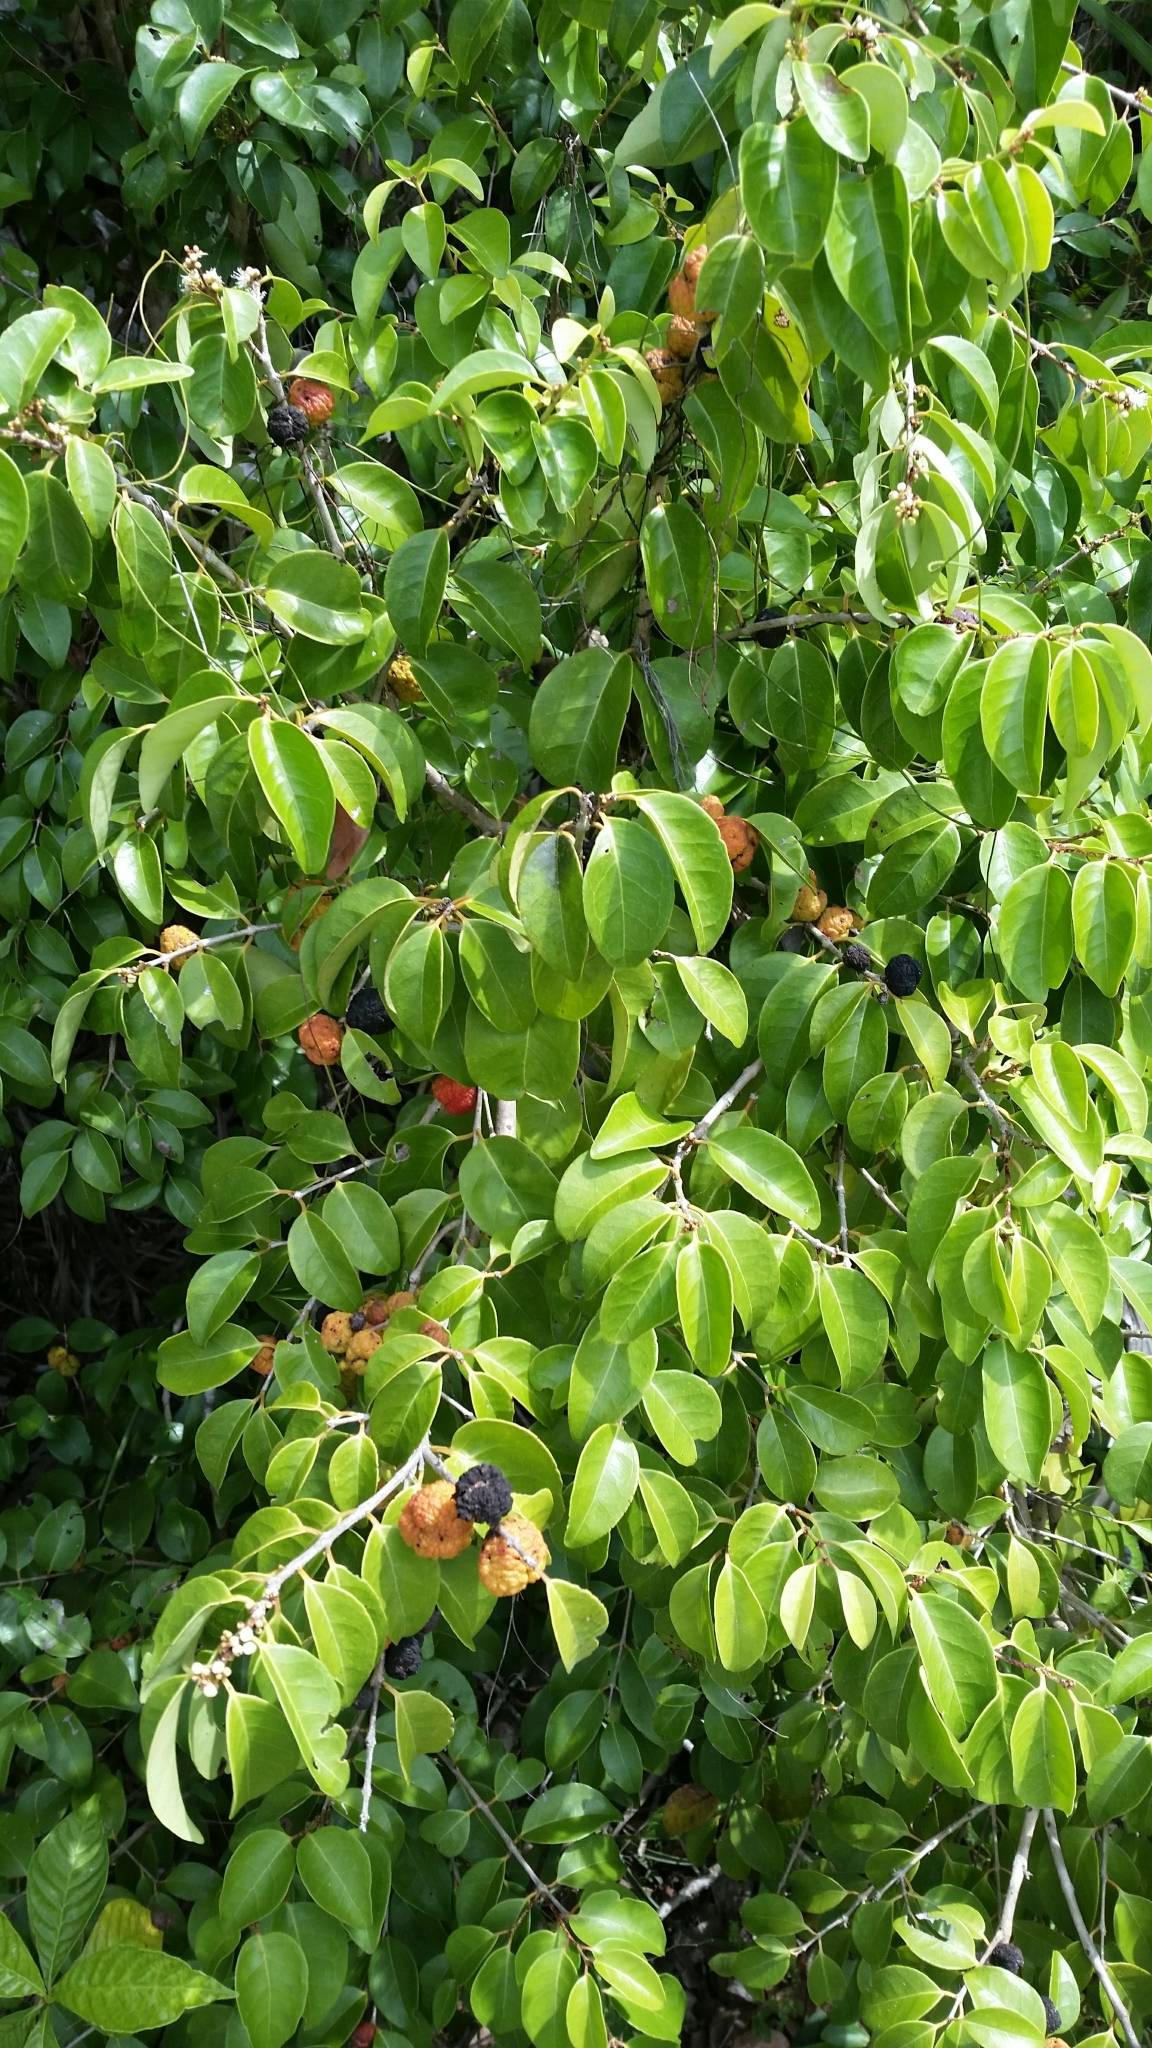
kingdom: Plantae
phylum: Tracheophyta
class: Magnoliopsida
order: Myrtales
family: Myrtaceae
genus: Eugenia
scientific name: Eugenia axillaris
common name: Choaky berry
